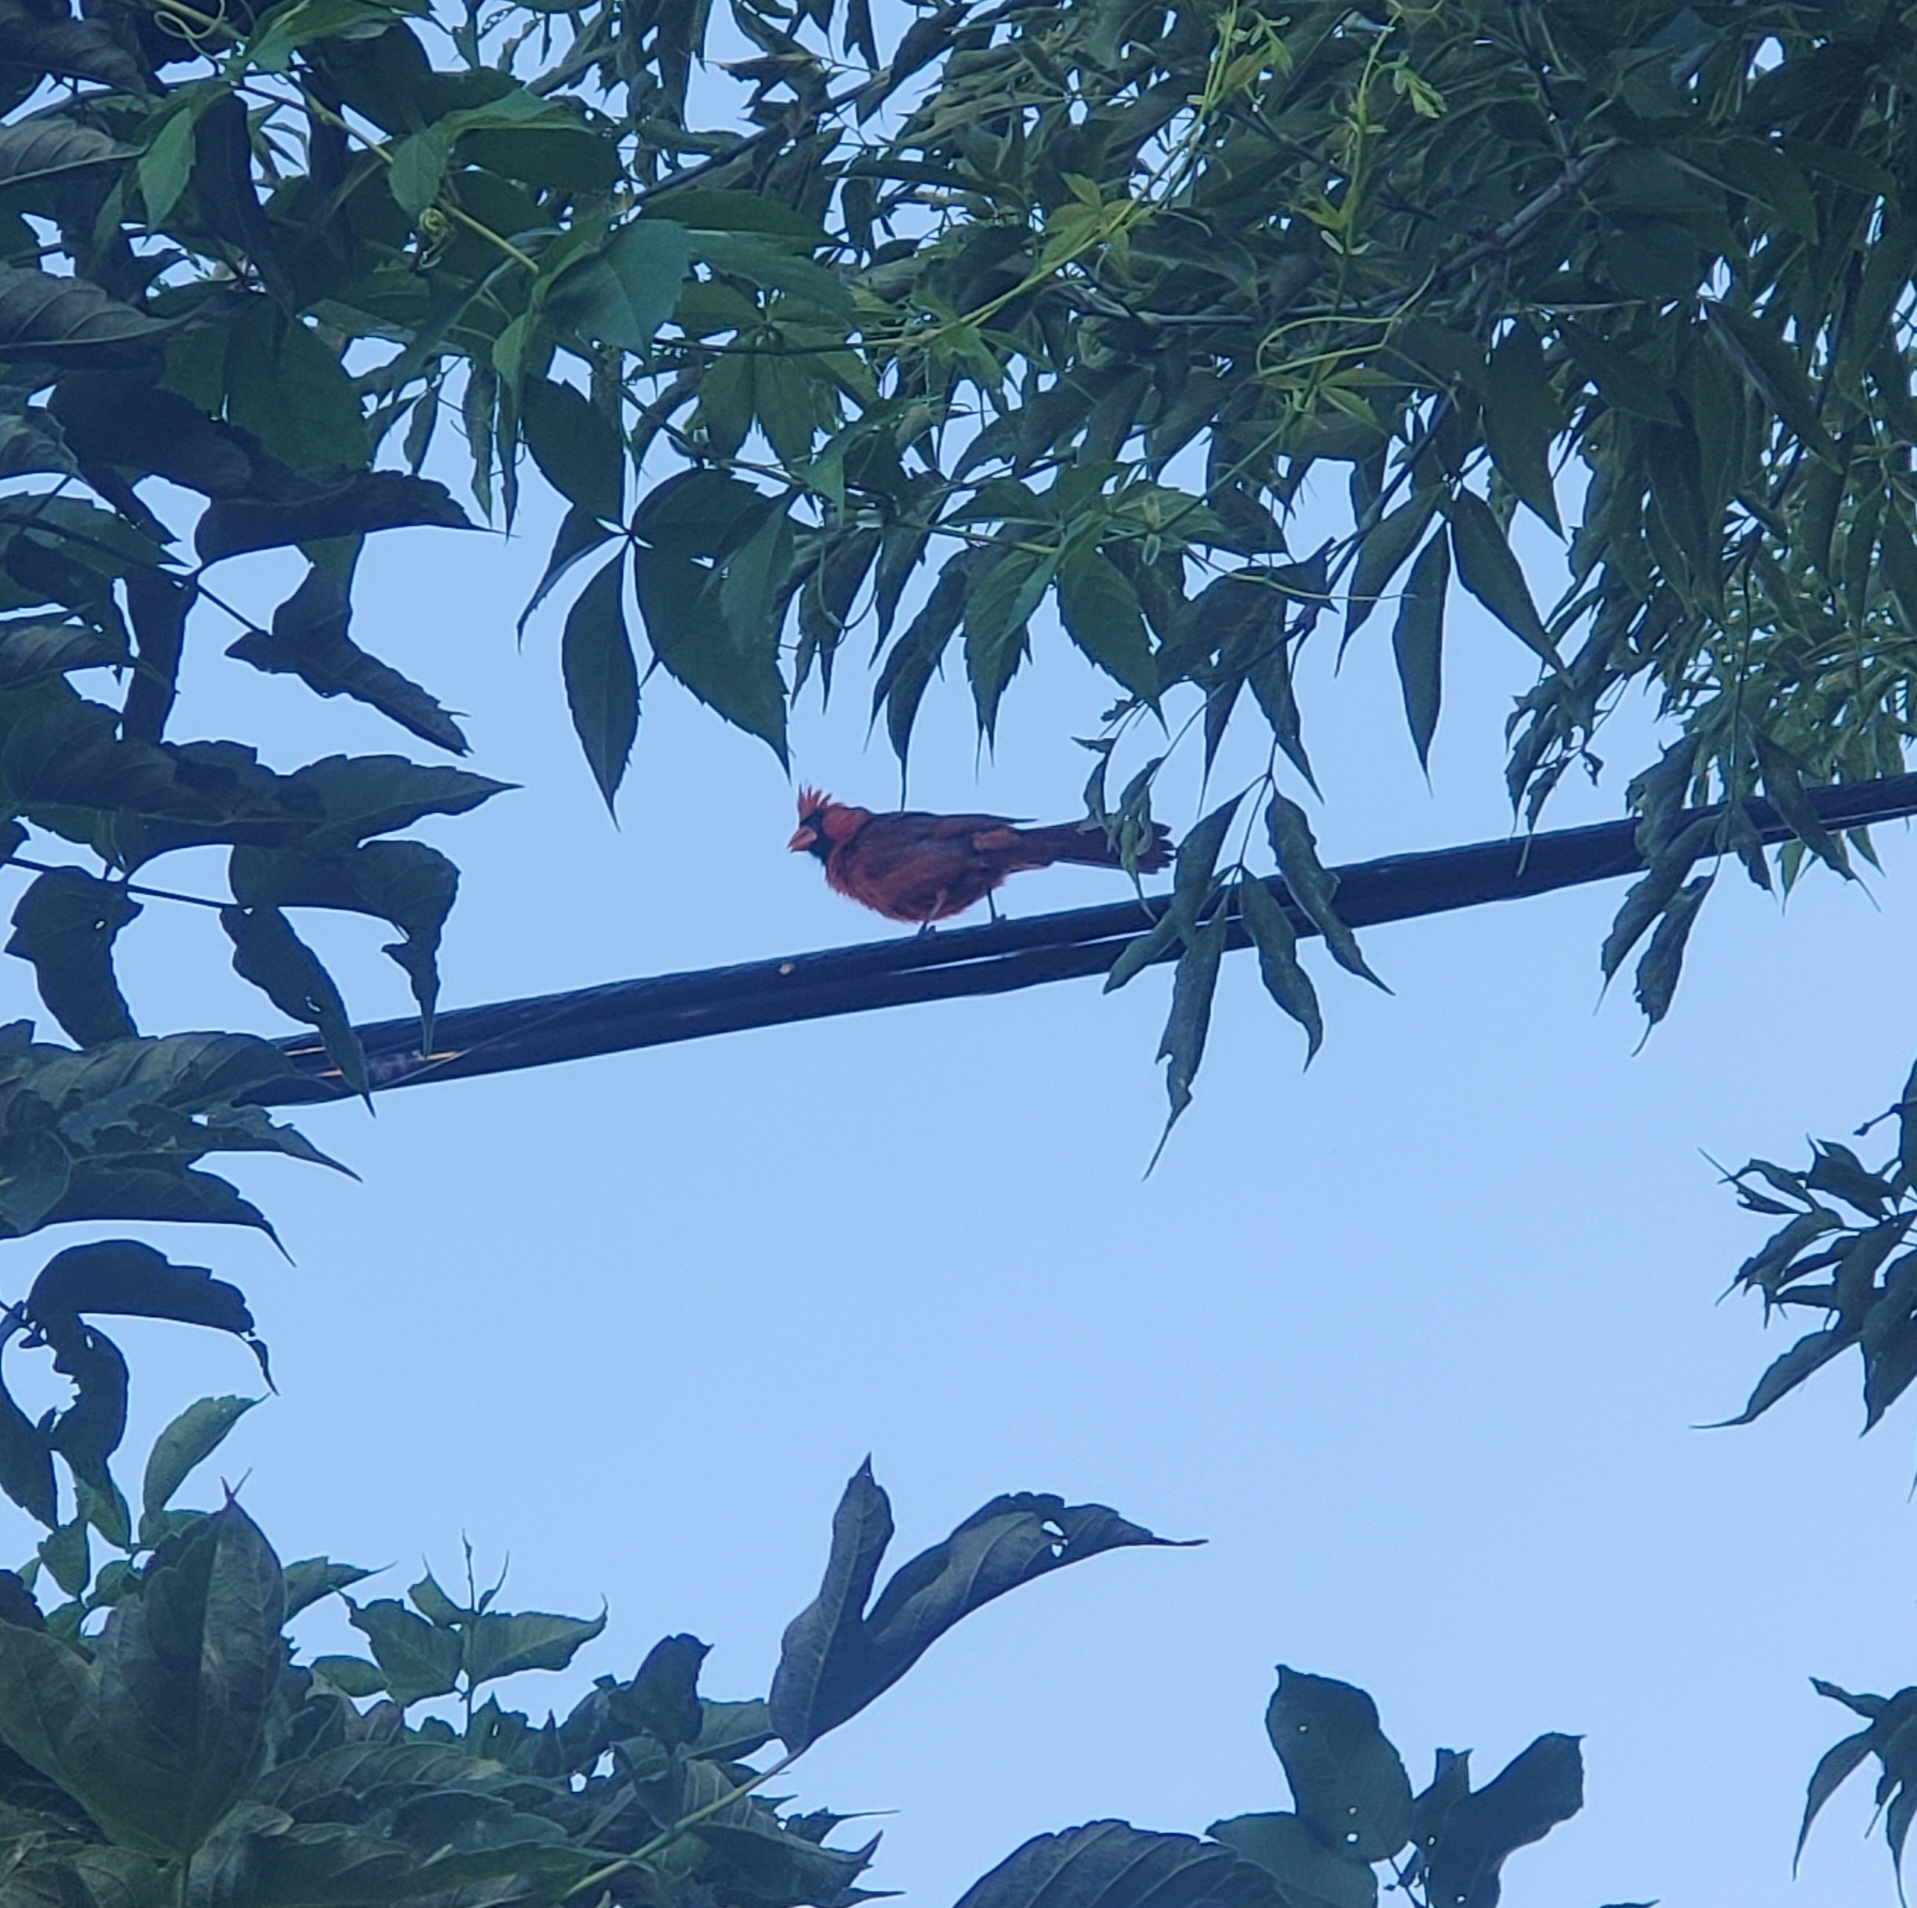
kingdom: Animalia
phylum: Chordata
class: Aves
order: Passeriformes
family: Cardinalidae
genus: Cardinalis
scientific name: Cardinalis cardinalis
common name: Northern cardinal
